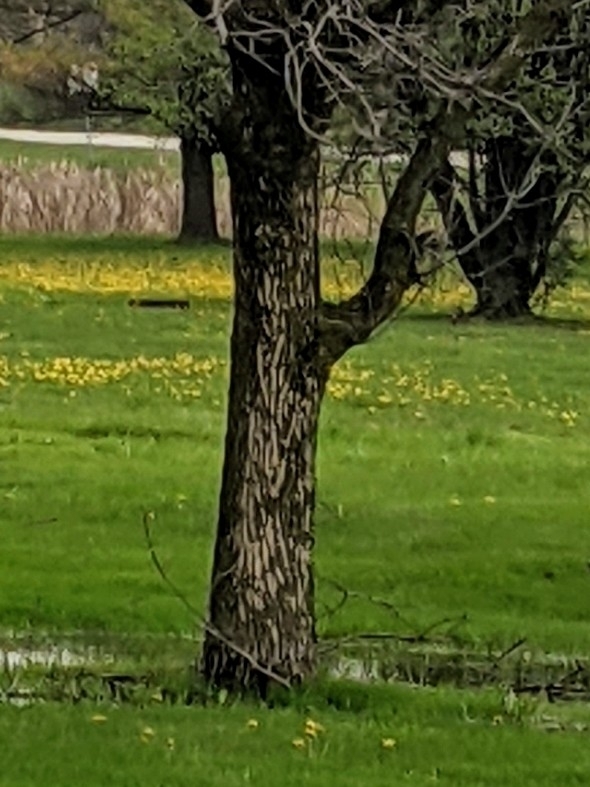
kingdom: Animalia
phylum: Arthropoda
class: Insecta
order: Coleoptera
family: Buprestidae
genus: Agrilus
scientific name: Agrilus planipennis
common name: Emerald ash borer
